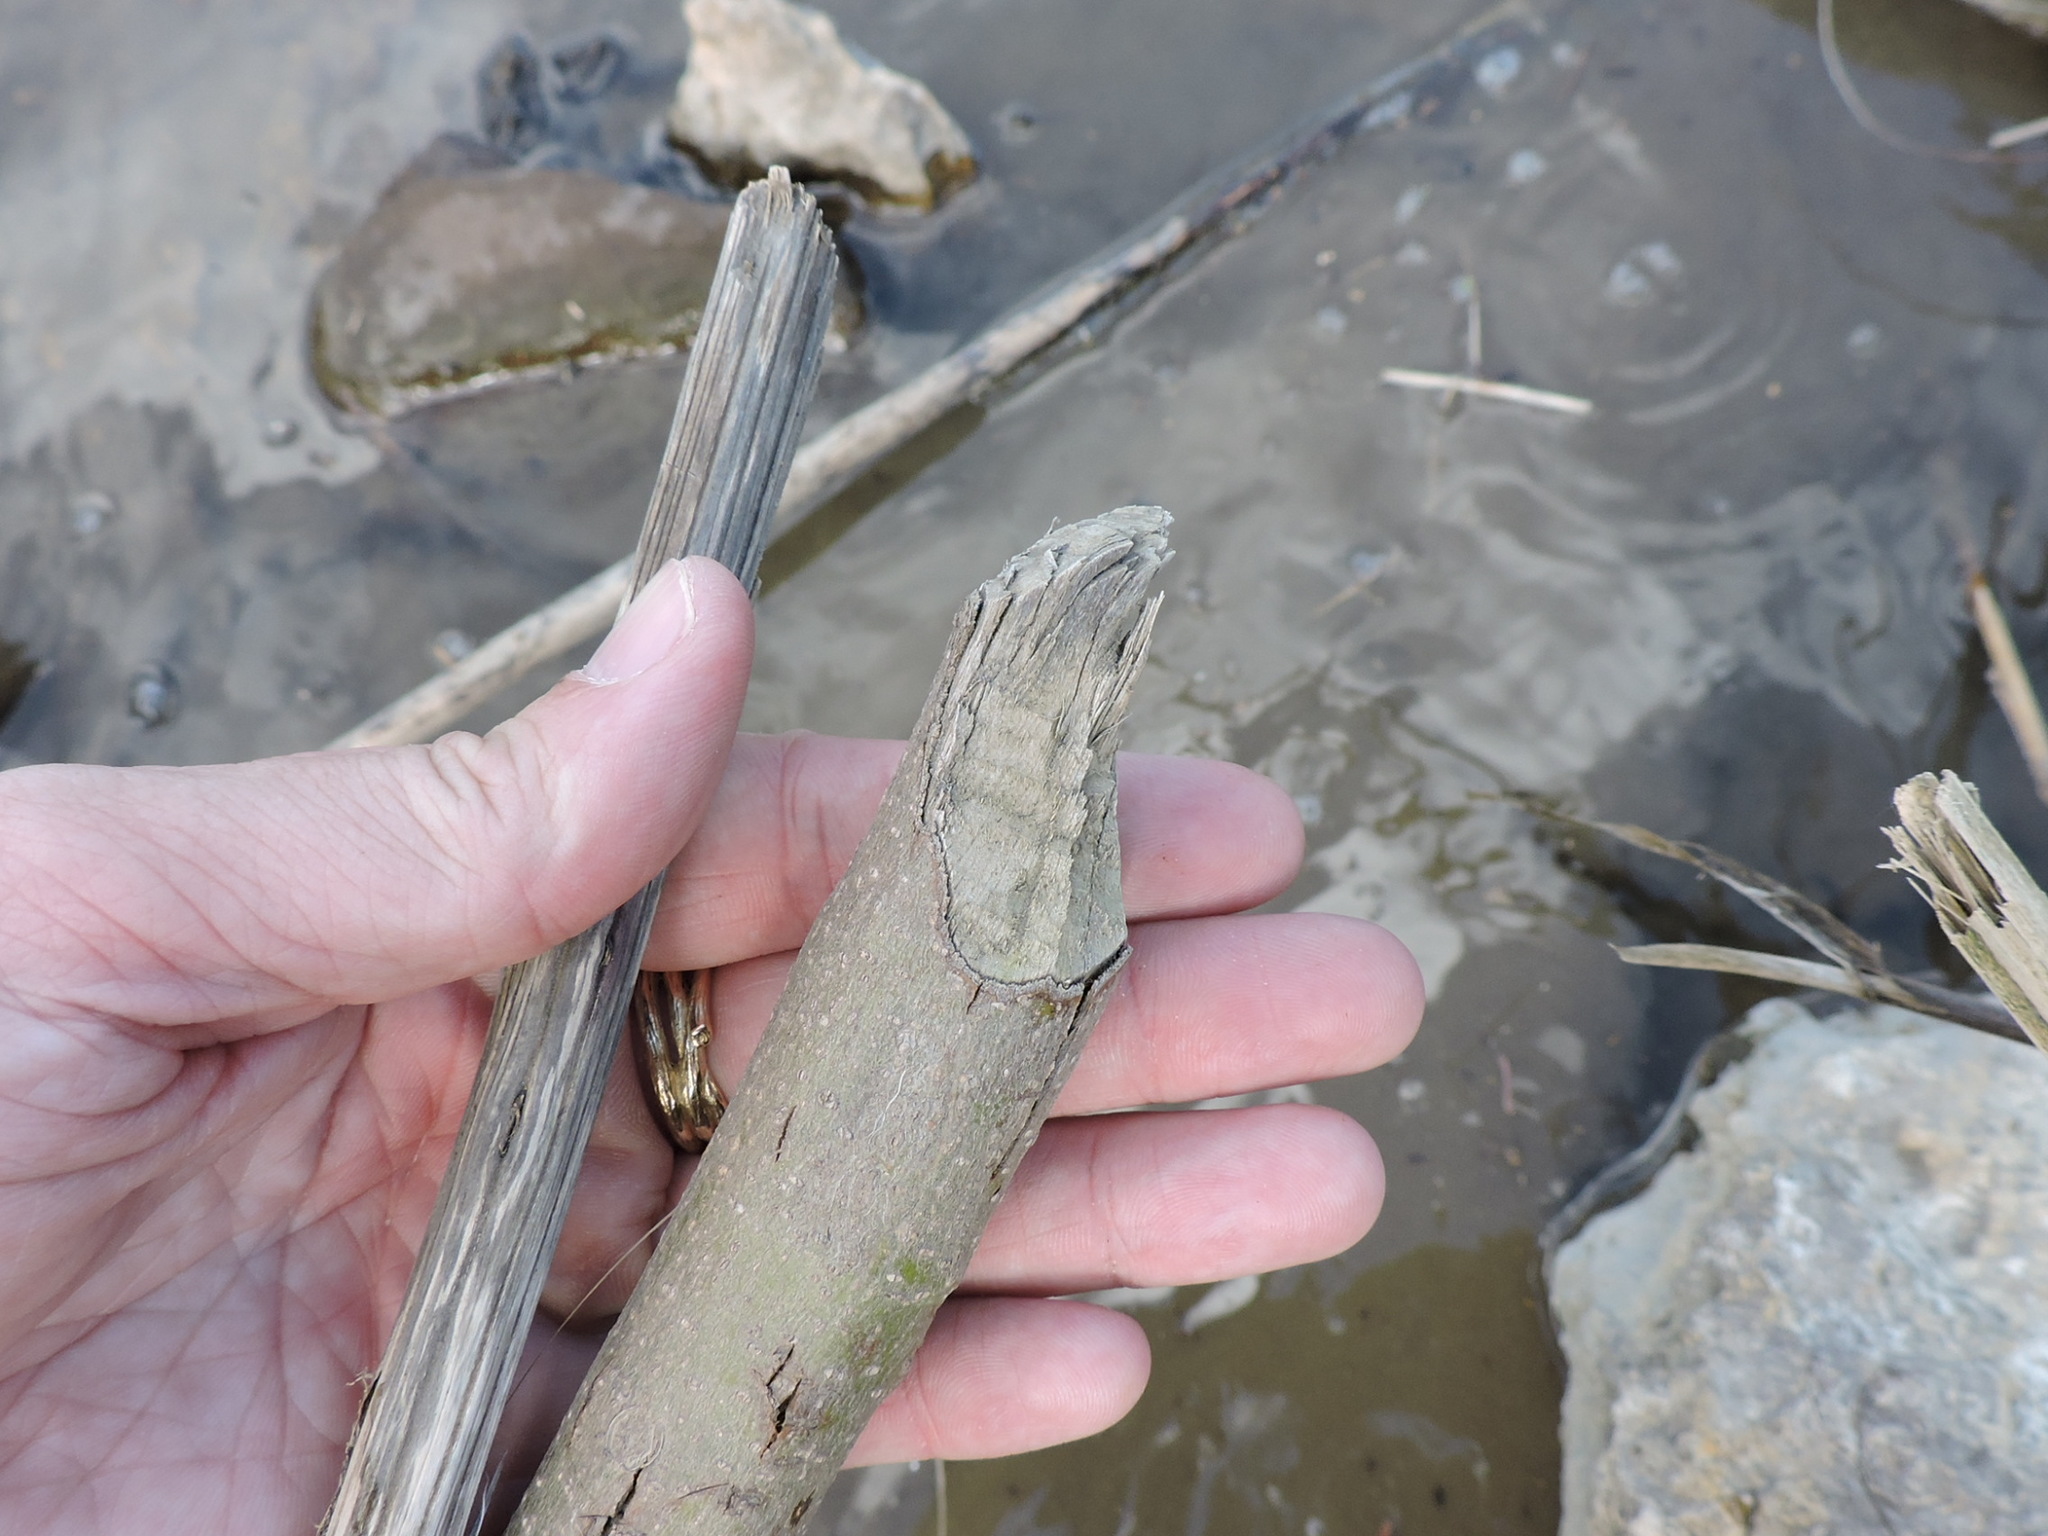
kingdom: Animalia
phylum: Chordata
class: Mammalia
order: Rodentia
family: Castoridae
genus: Castor
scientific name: Castor canadensis
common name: American beaver
